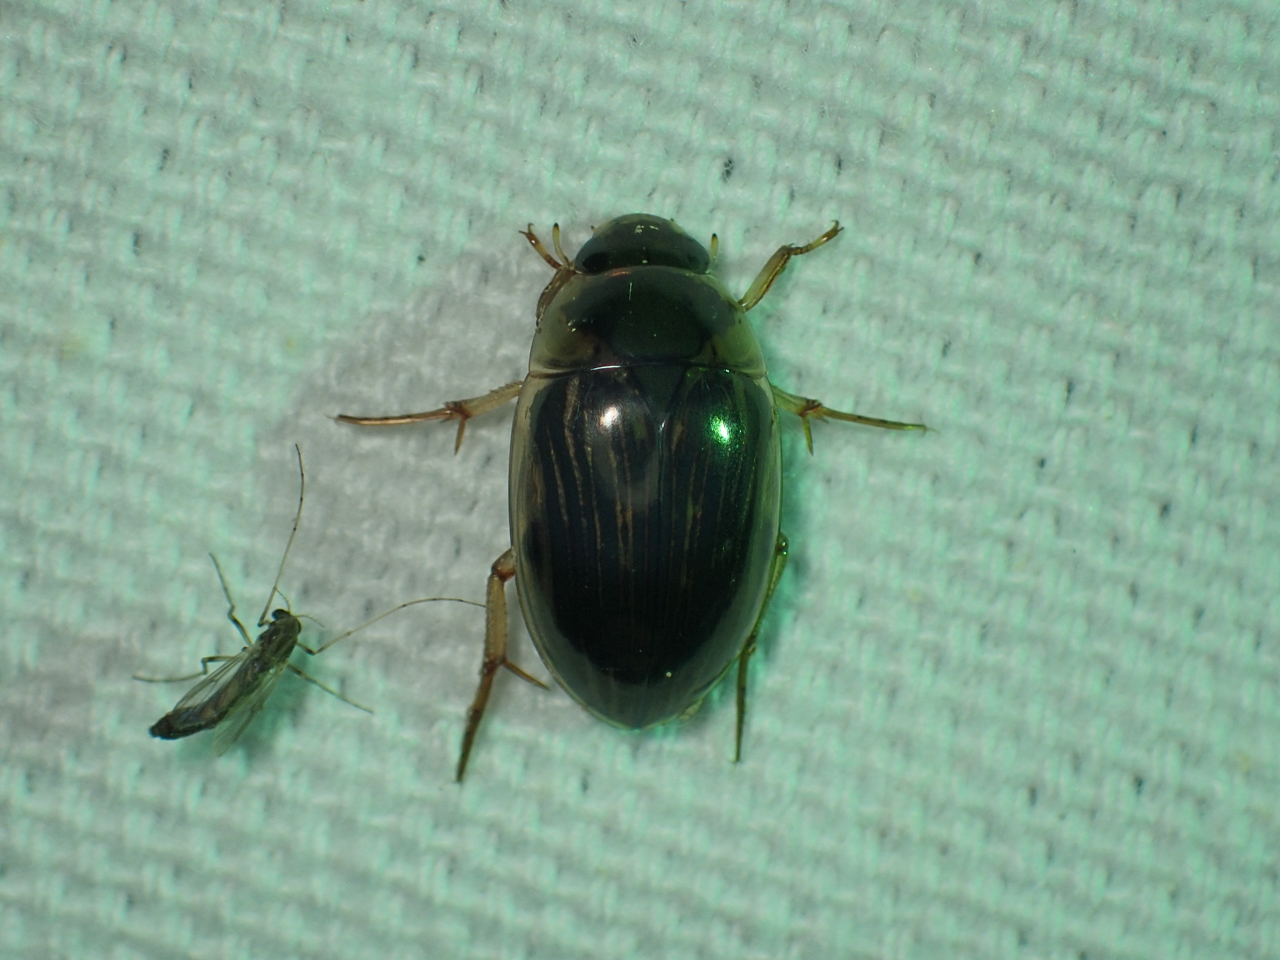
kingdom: Animalia
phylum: Arthropoda
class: Insecta
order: Coleoptera
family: Hydrophilidae
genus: Tropisternus
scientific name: Tropisternus collaris
